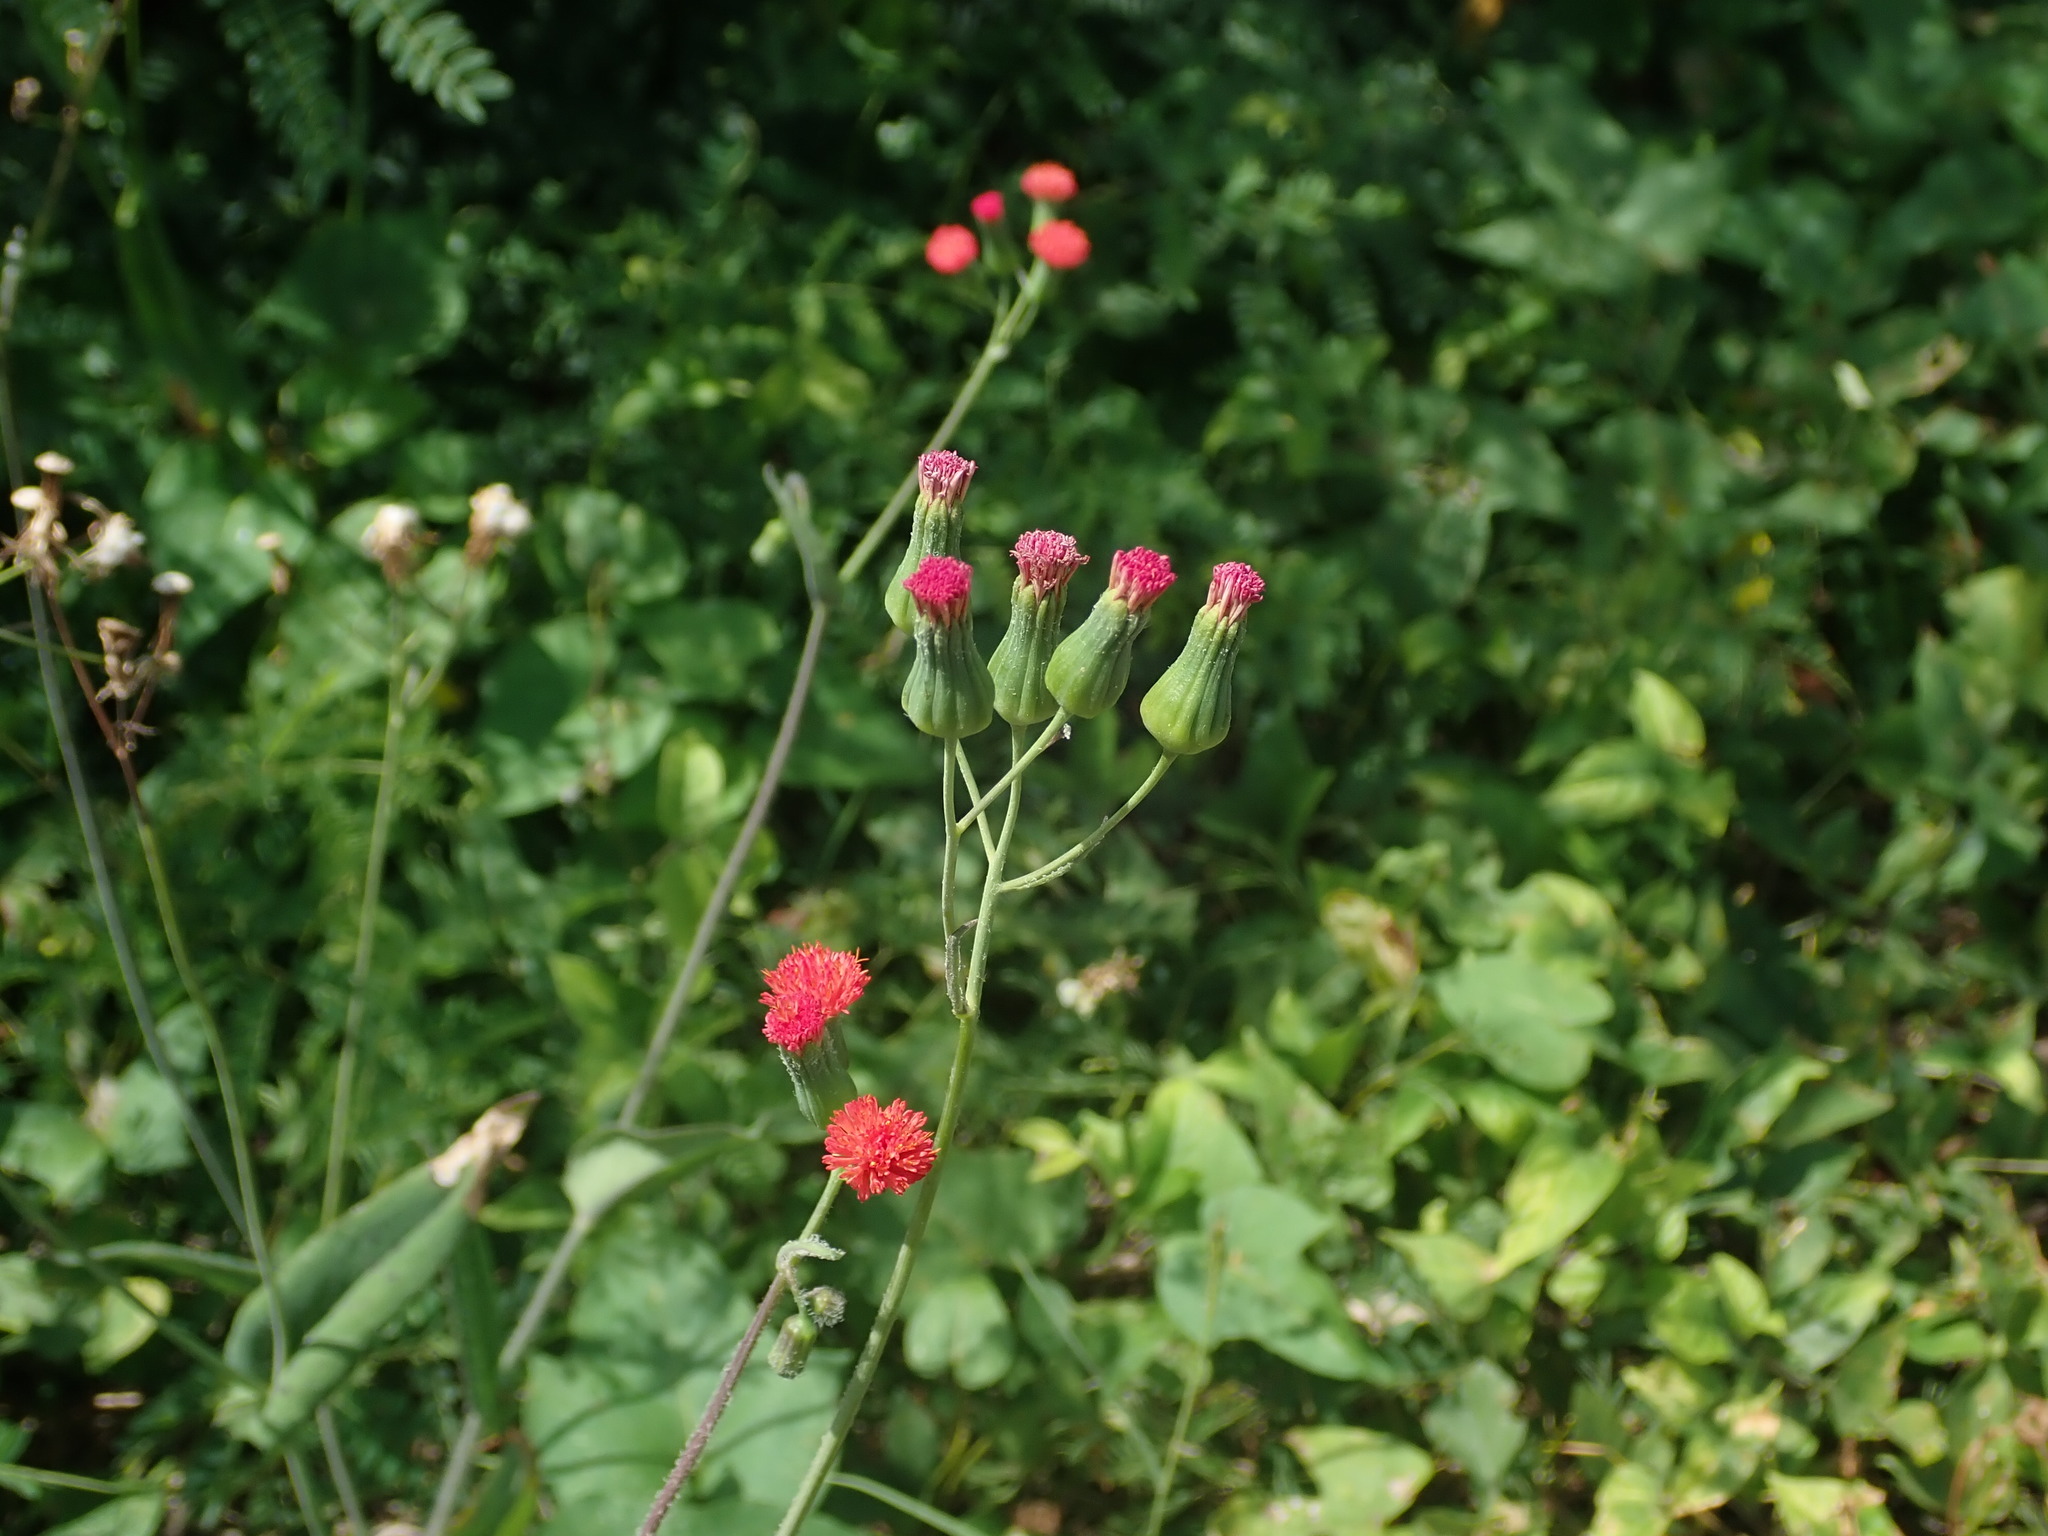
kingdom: Plantae
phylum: Tracheophyta
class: Magnoliopsida
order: Asterales
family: Asteraceae
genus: Emilia
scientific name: Emilia fosbergii
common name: Florida tasselflower
